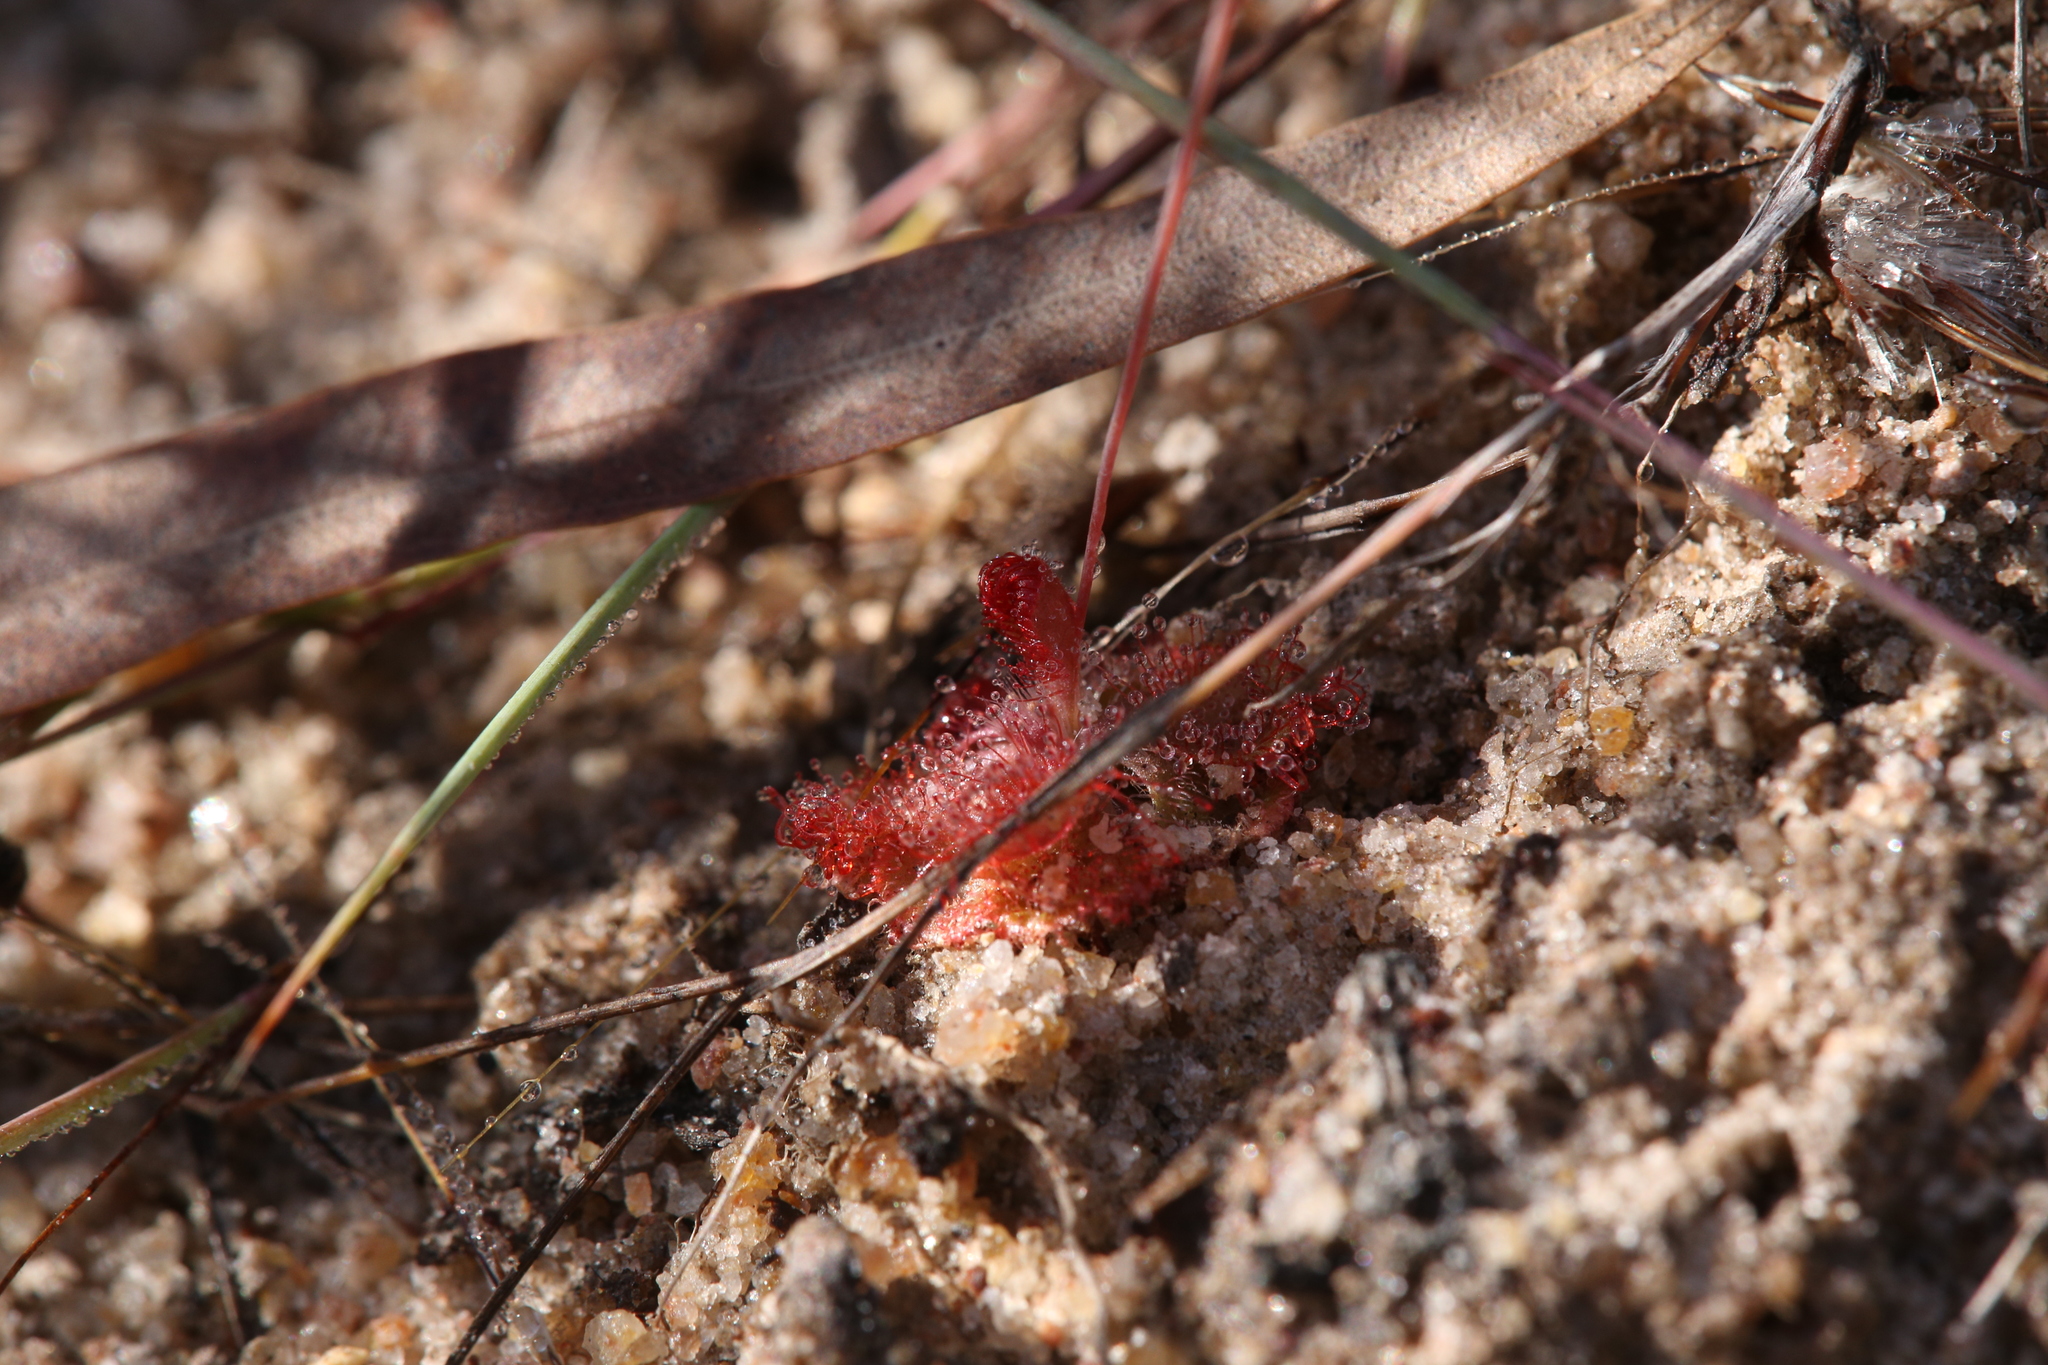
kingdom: Plantae
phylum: Tracheophyta
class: Magnoliopsida
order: Caryophyllales
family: Droseraceae
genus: Drosera
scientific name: Drosera spatulata
